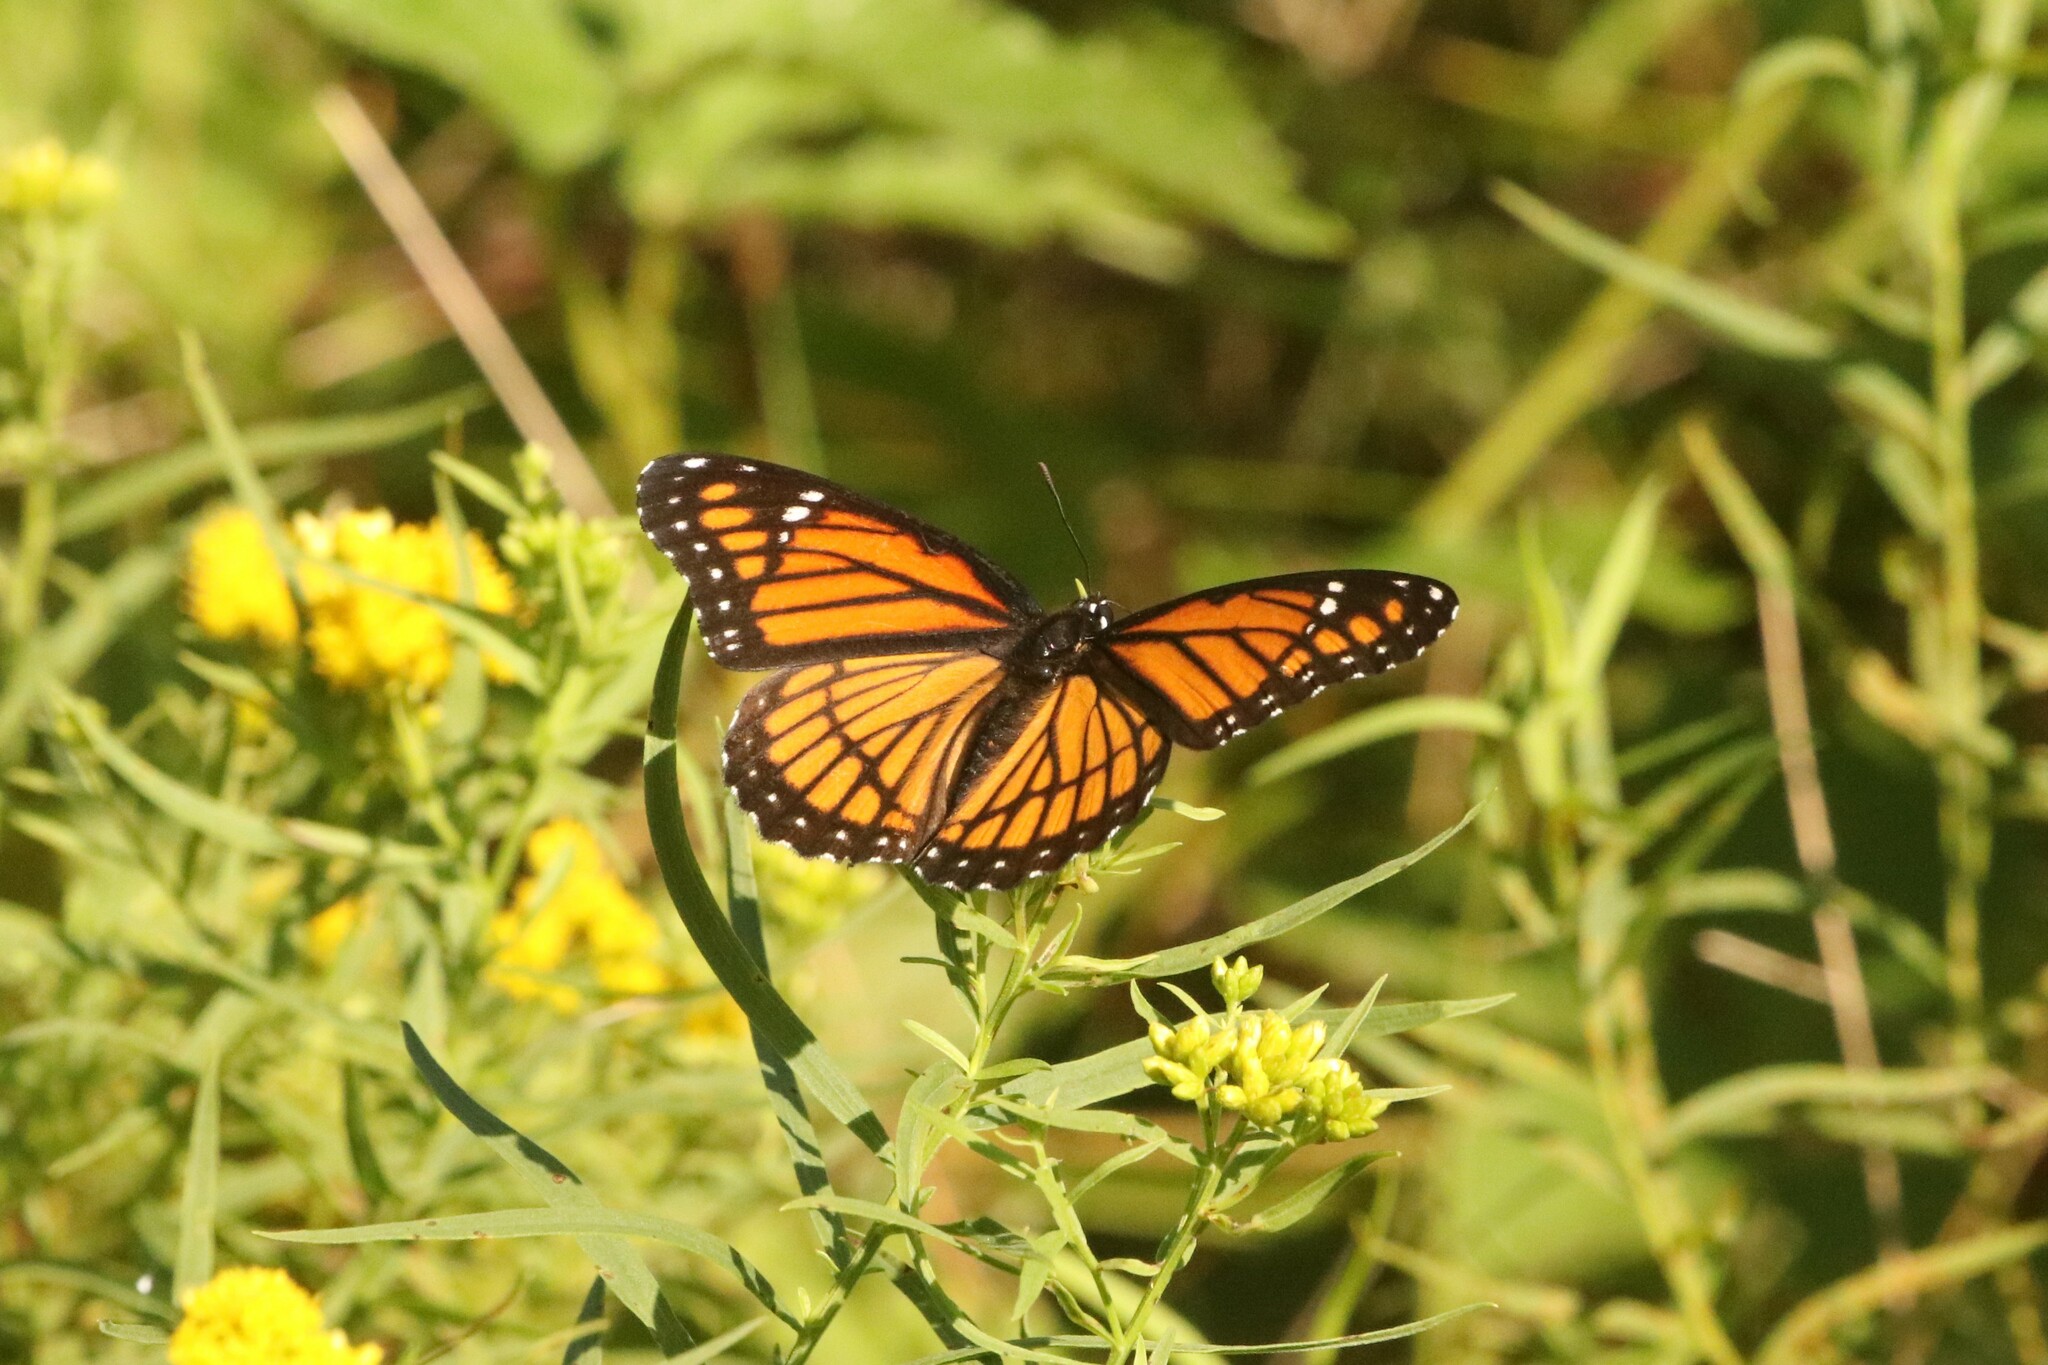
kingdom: Animalia
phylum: Arthropoda
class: Insecta
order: Lepidoptera
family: Nymphalidae
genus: Limenitis
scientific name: Limenitis archippus
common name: Viceroy
